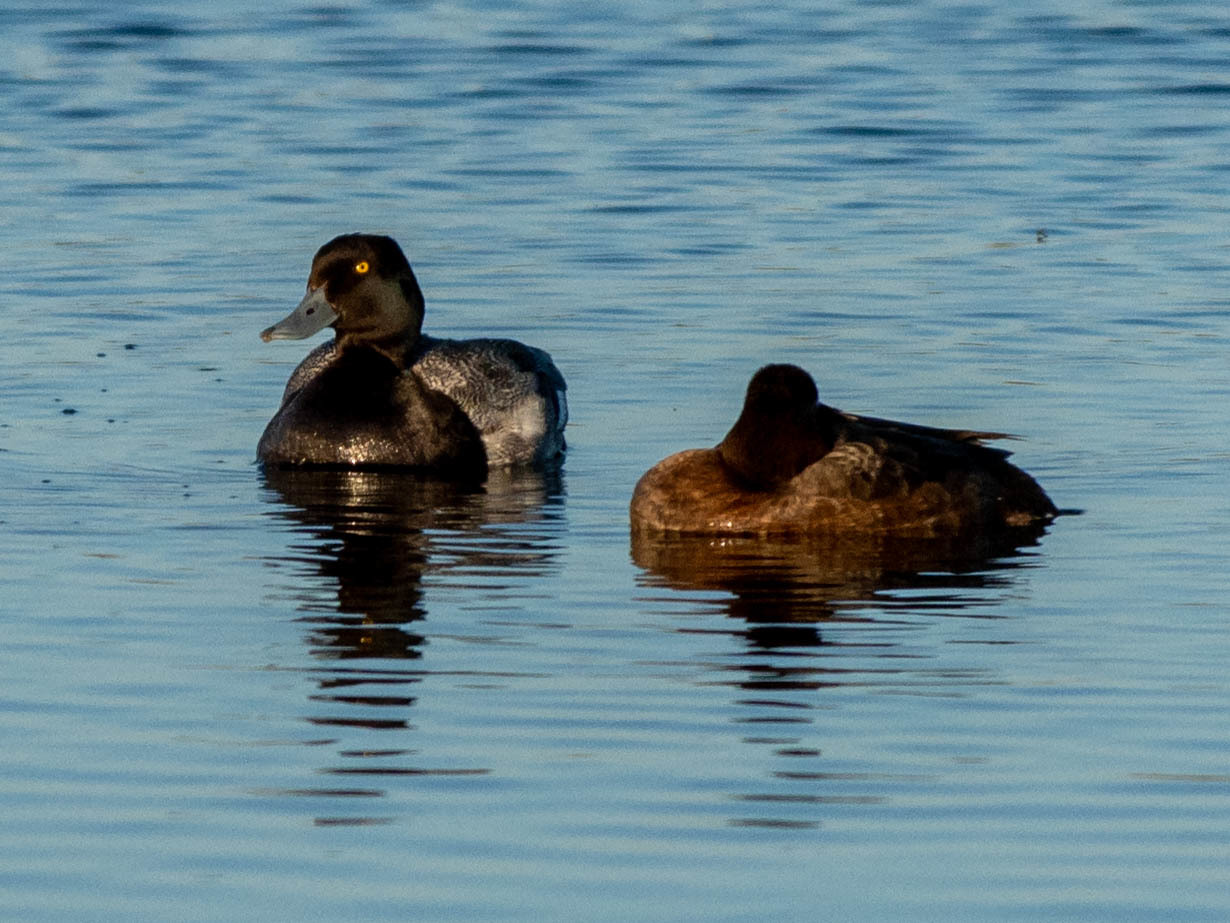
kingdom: Animalia
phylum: Chordata
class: Aves
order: Anseriformes
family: Anatidae
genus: Aythya
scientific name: Aythya affinis
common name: Lesser scaup
